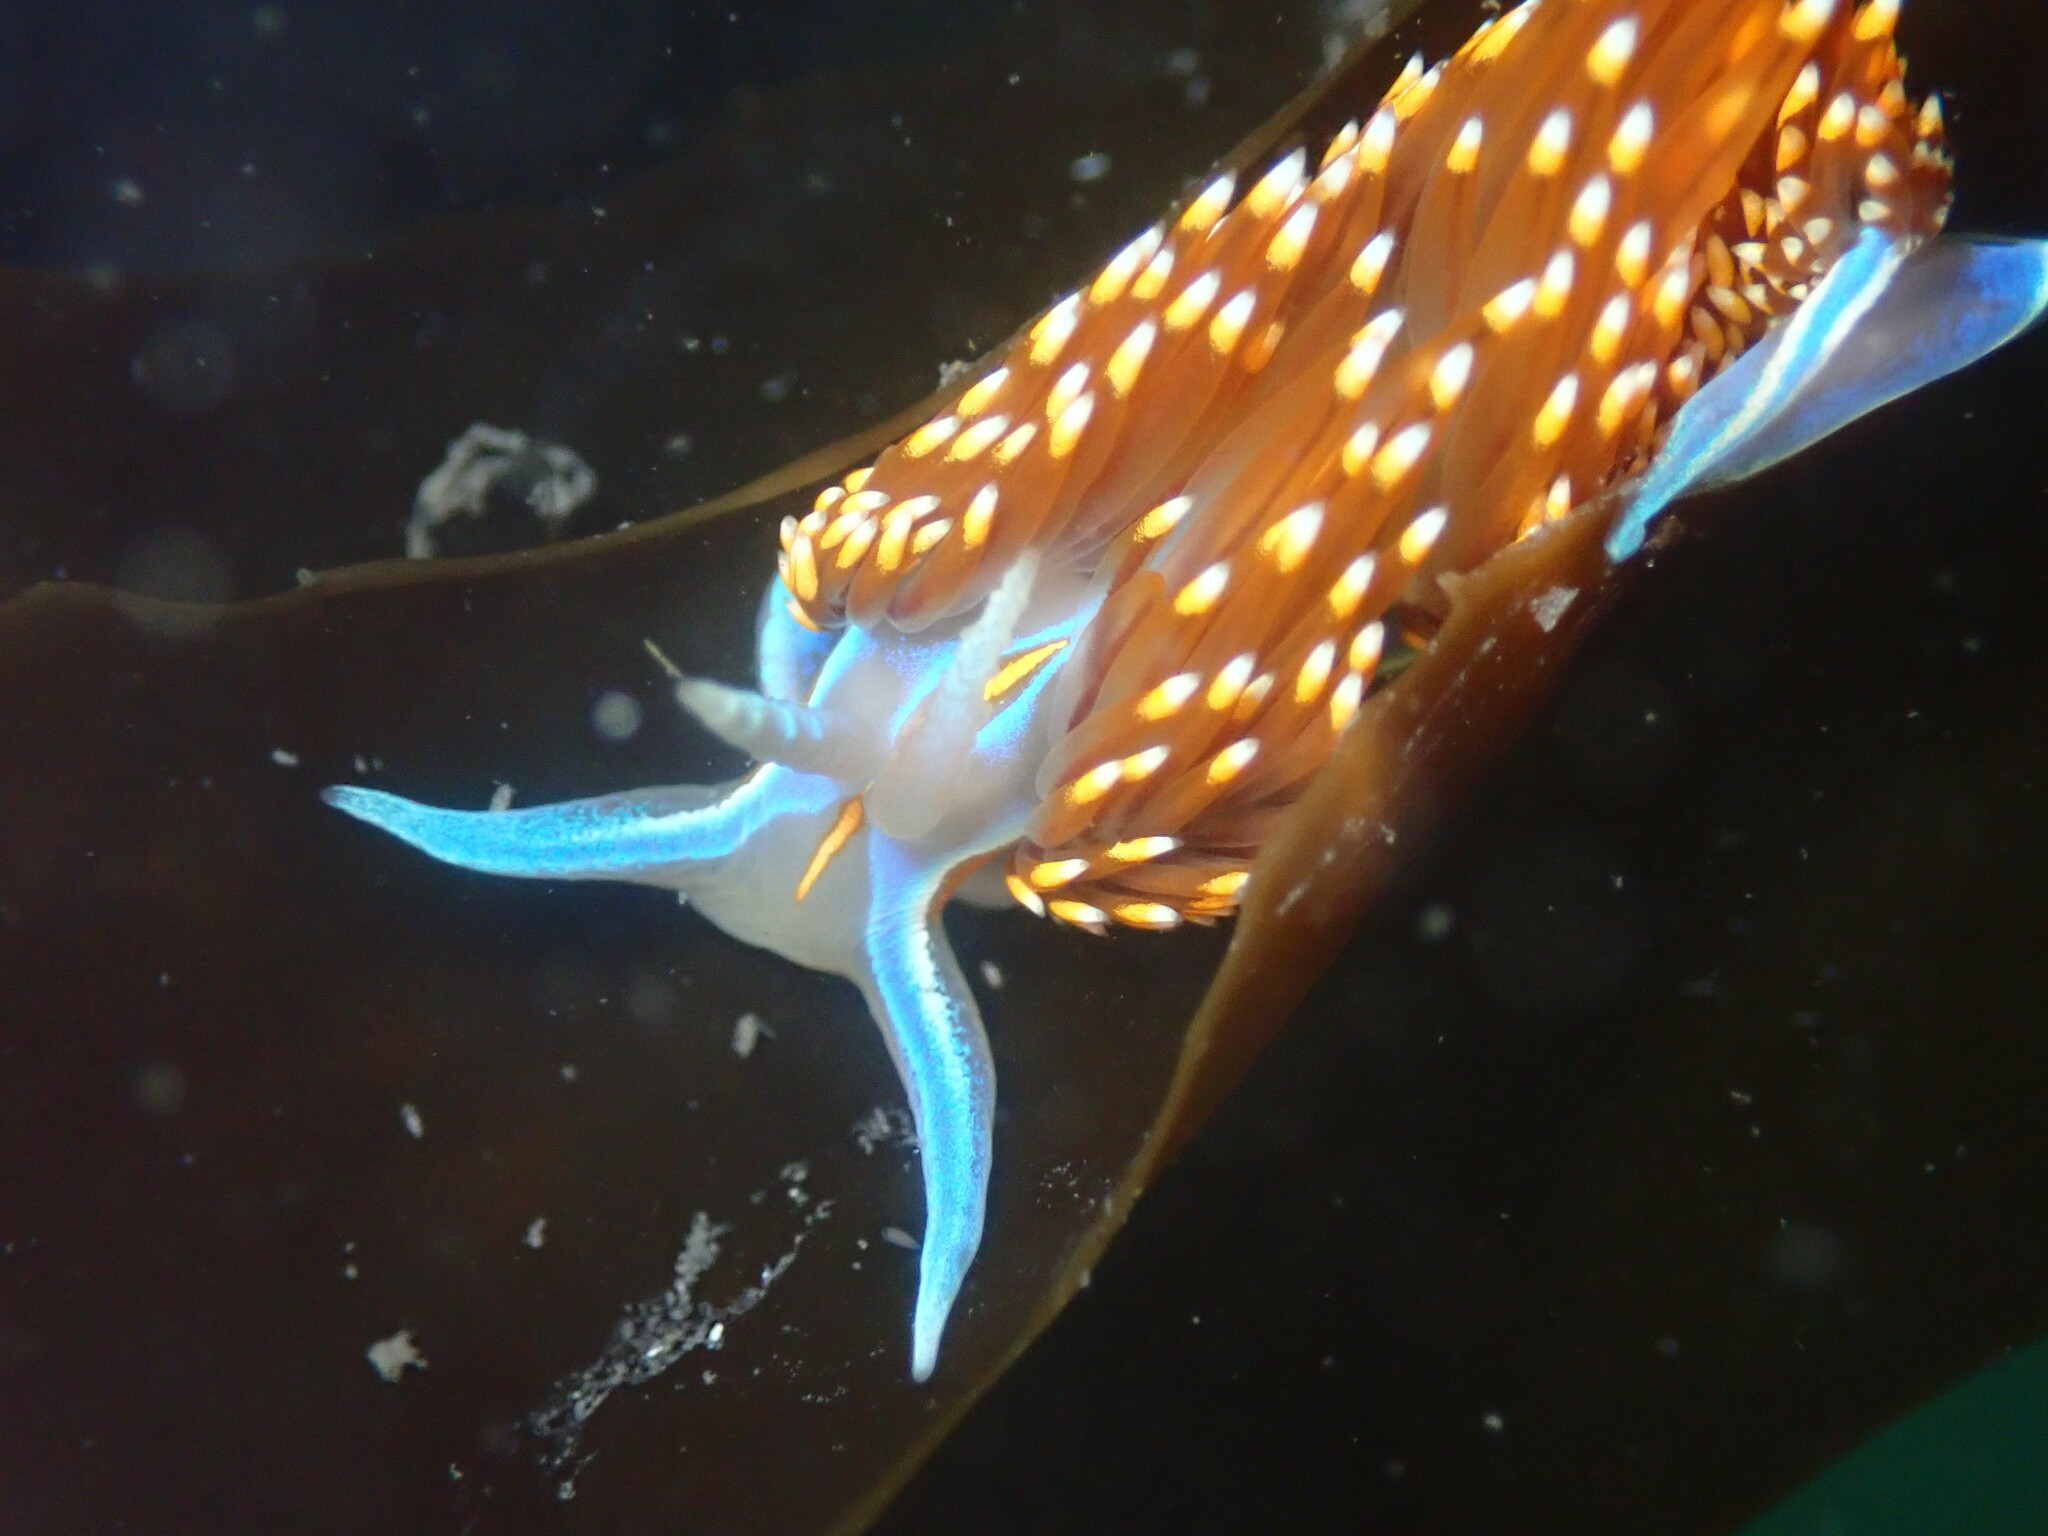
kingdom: Animalia
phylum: Mollusca
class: Gastropoda
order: Nudibranchia
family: Myrrhinidae
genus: Hermissenda
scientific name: Hermissenda opalescens
